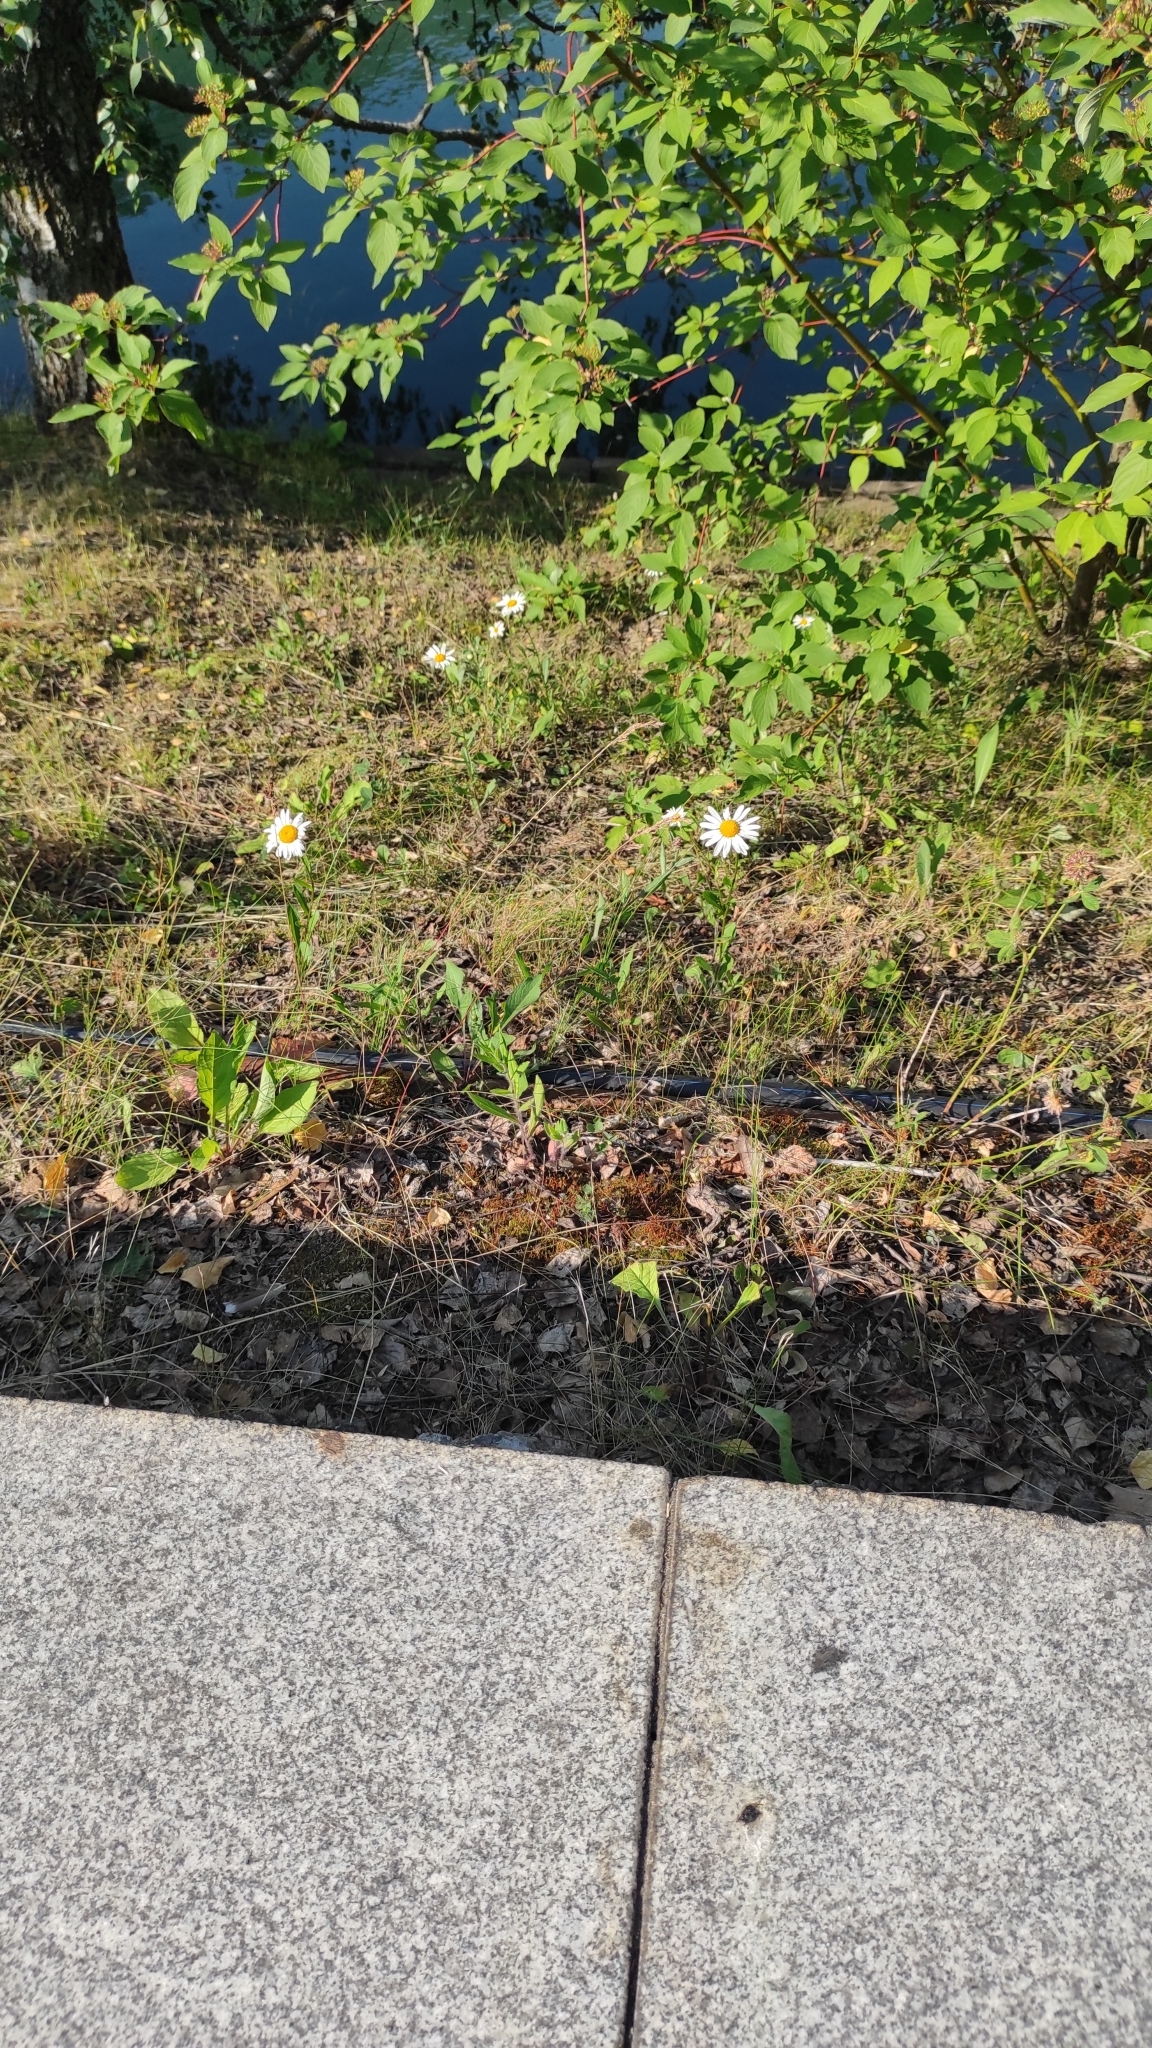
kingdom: Plantae
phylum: Tracheophyta
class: Magnoliopsida
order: Asterales
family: Asteraceae
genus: Leucanthemum
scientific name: Leucanthemum vulgare
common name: Oxeye daisy
